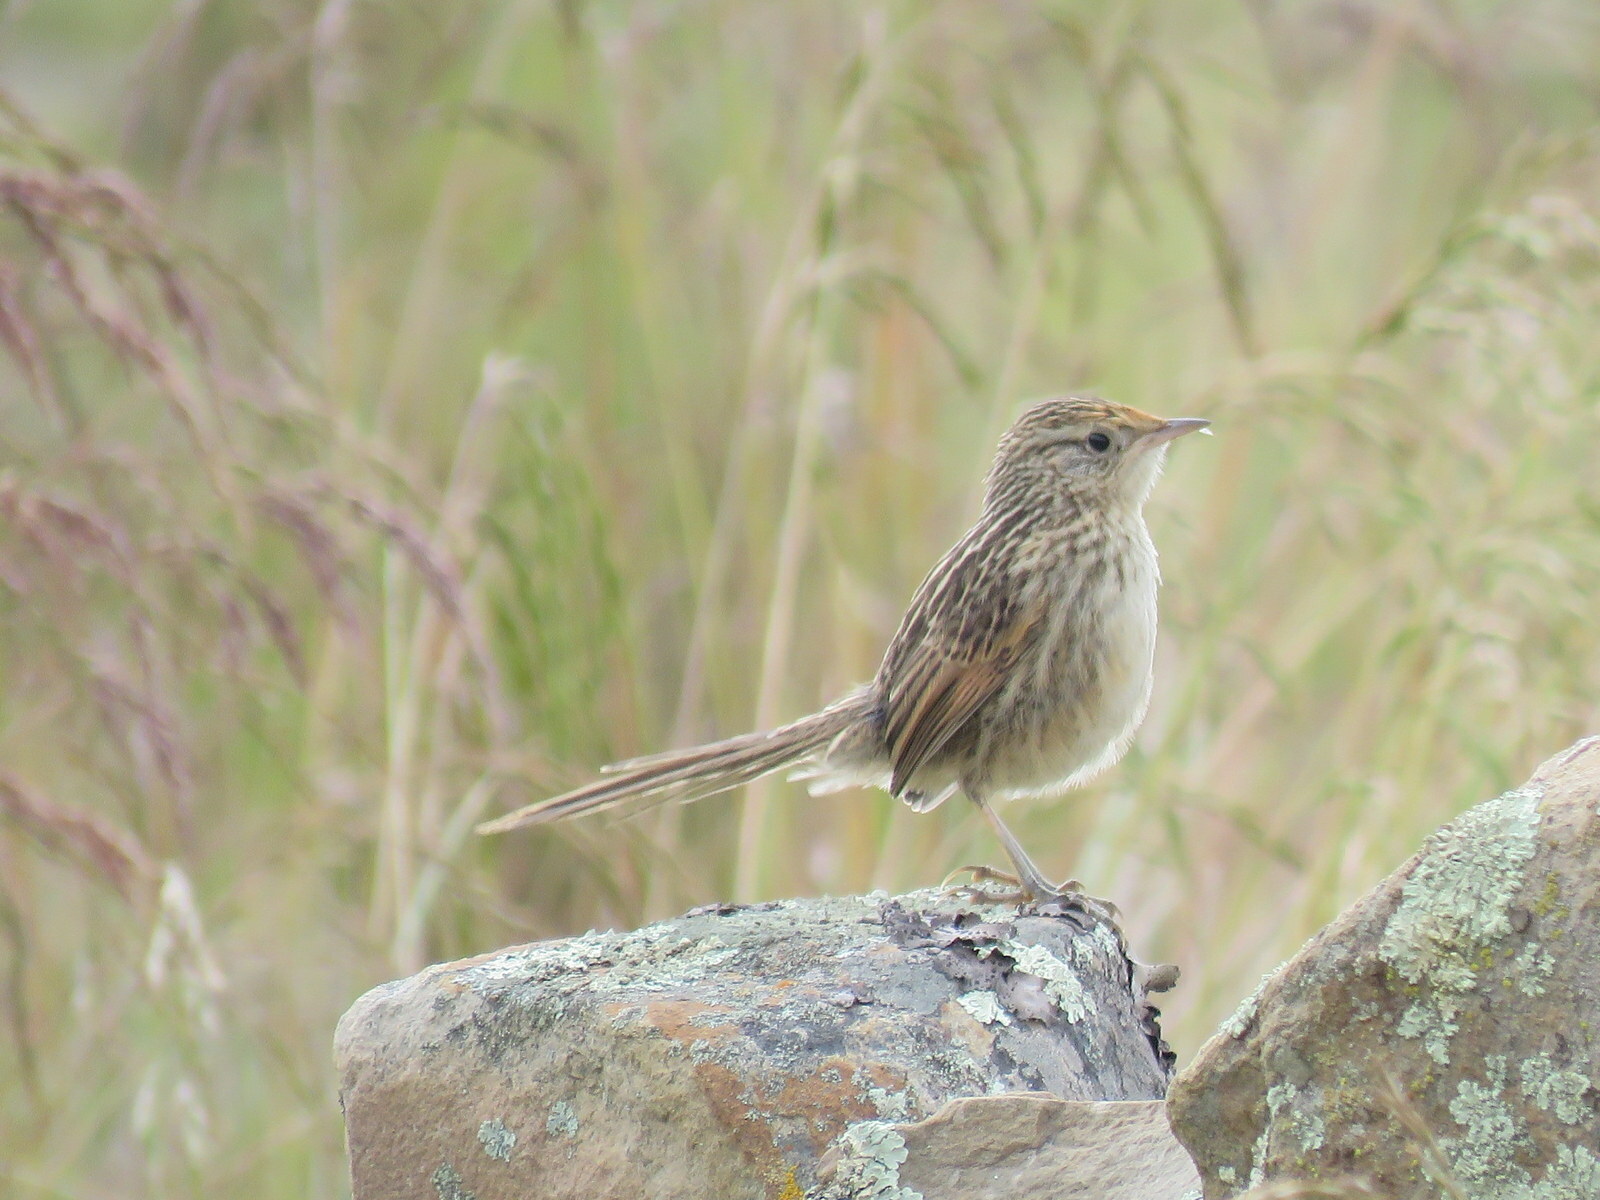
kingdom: Animalia
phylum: Chordata
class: Aves
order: Passeriformes
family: Furnariidae
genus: Asthenes
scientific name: Asthenes maculicauda
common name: Scribble-tailed canastero
